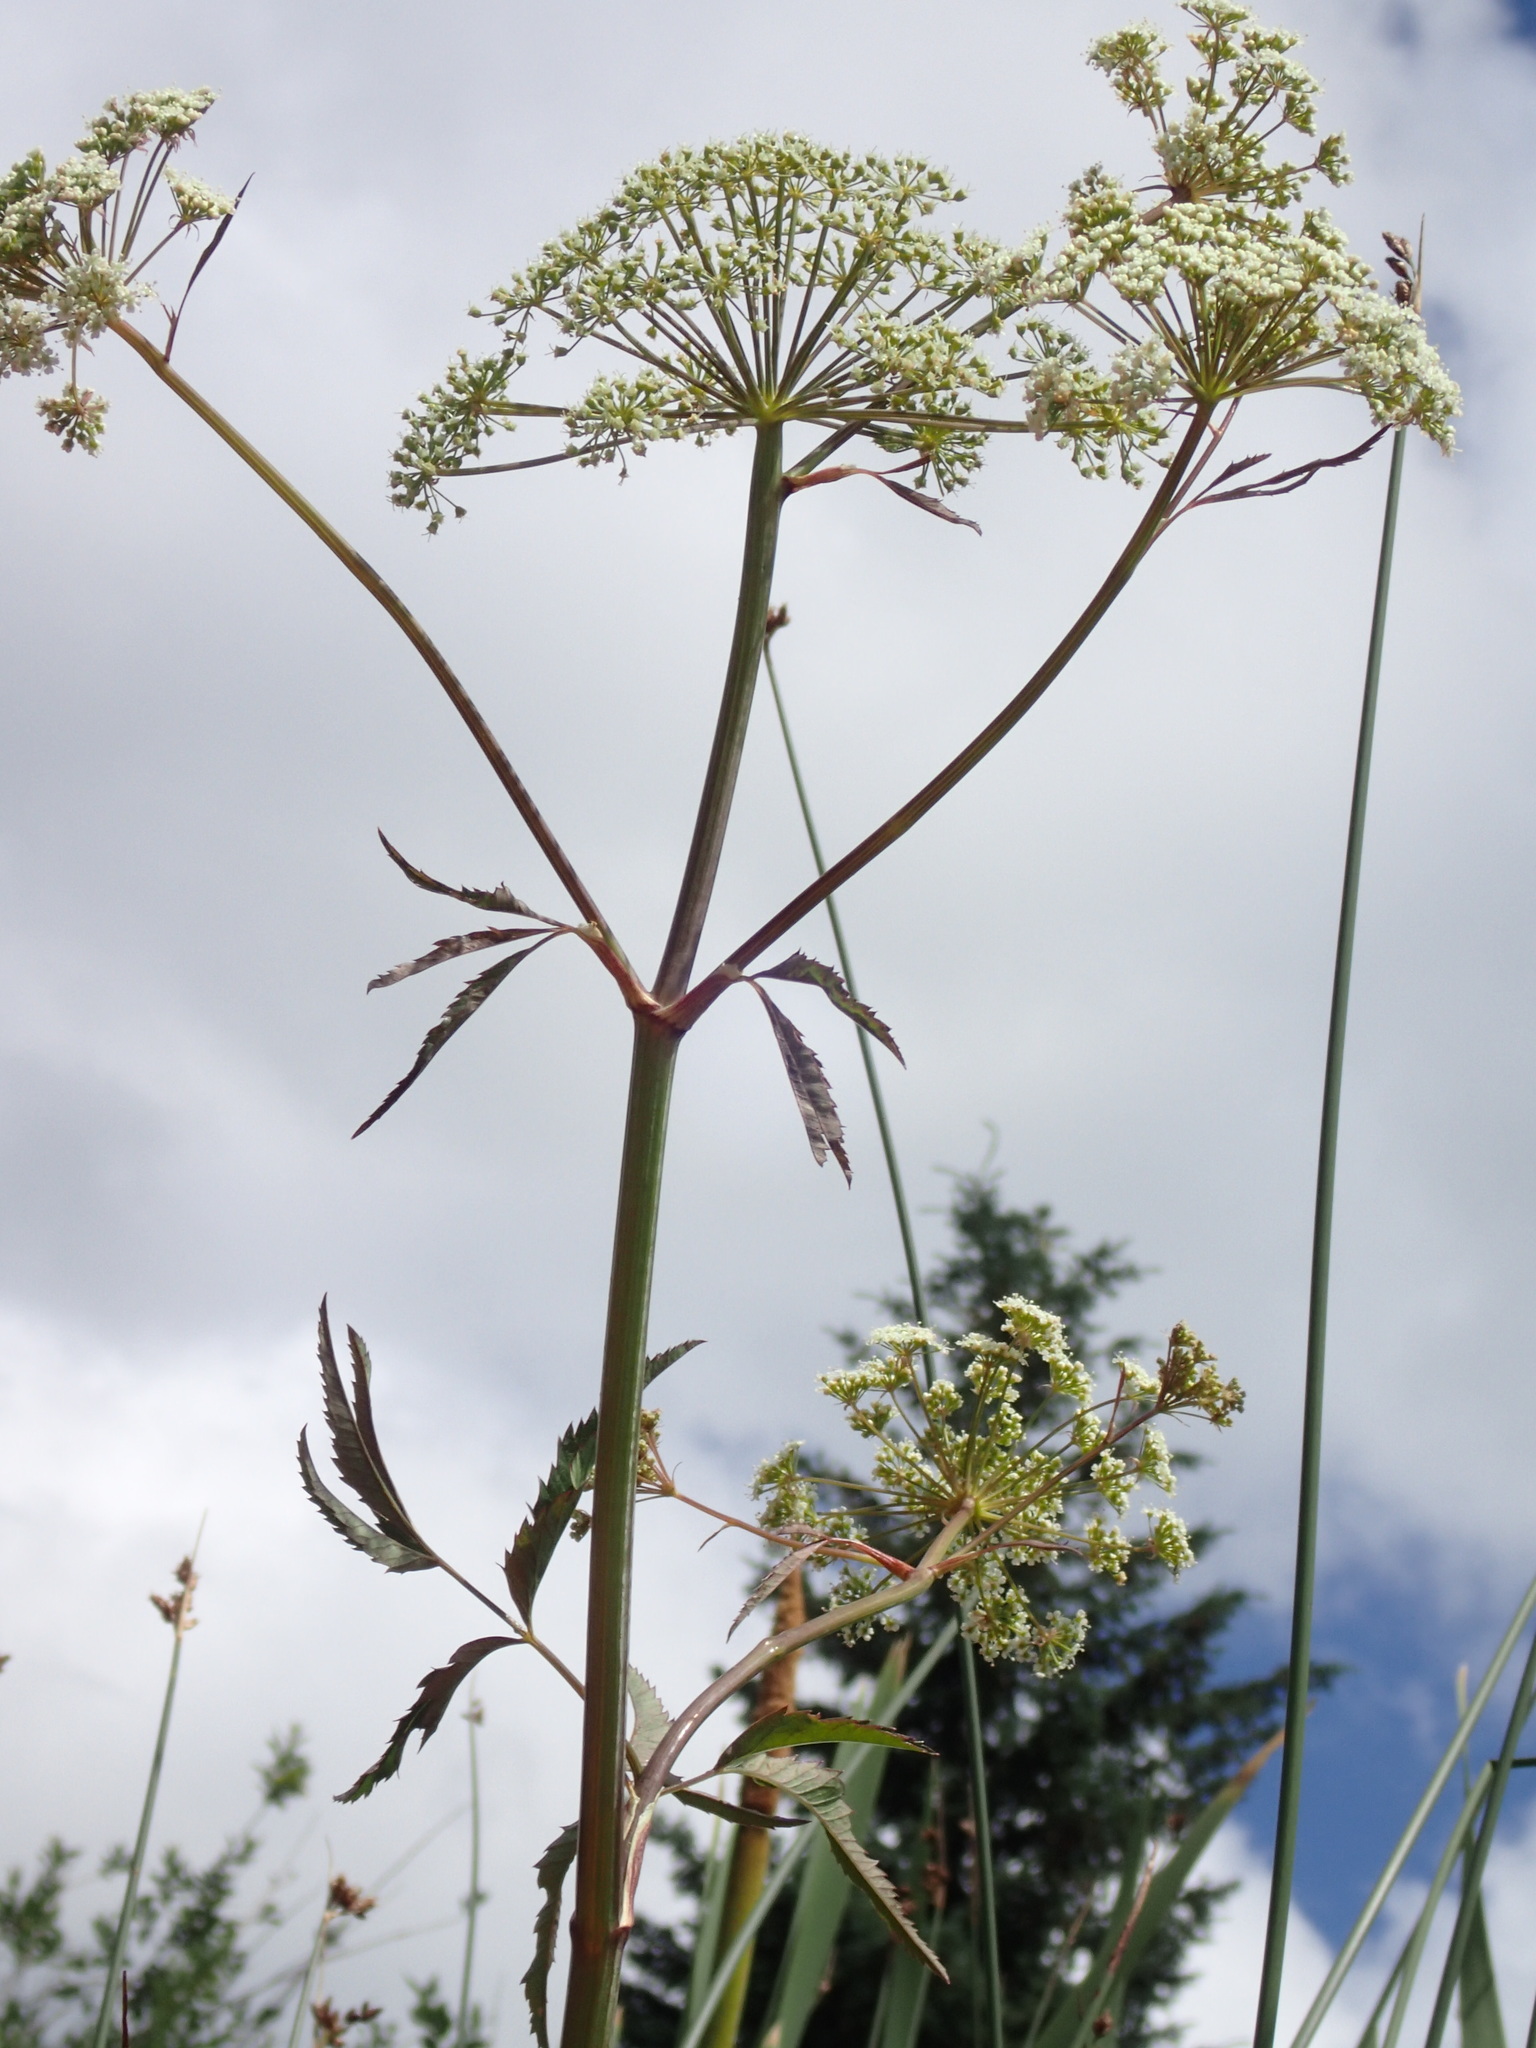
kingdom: Plantae
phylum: Tracheophyta
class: Magnoliopsida
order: Apiales
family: Apiaceae
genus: Cicuta
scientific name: Cicuta maculata
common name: Spotted cowbane
